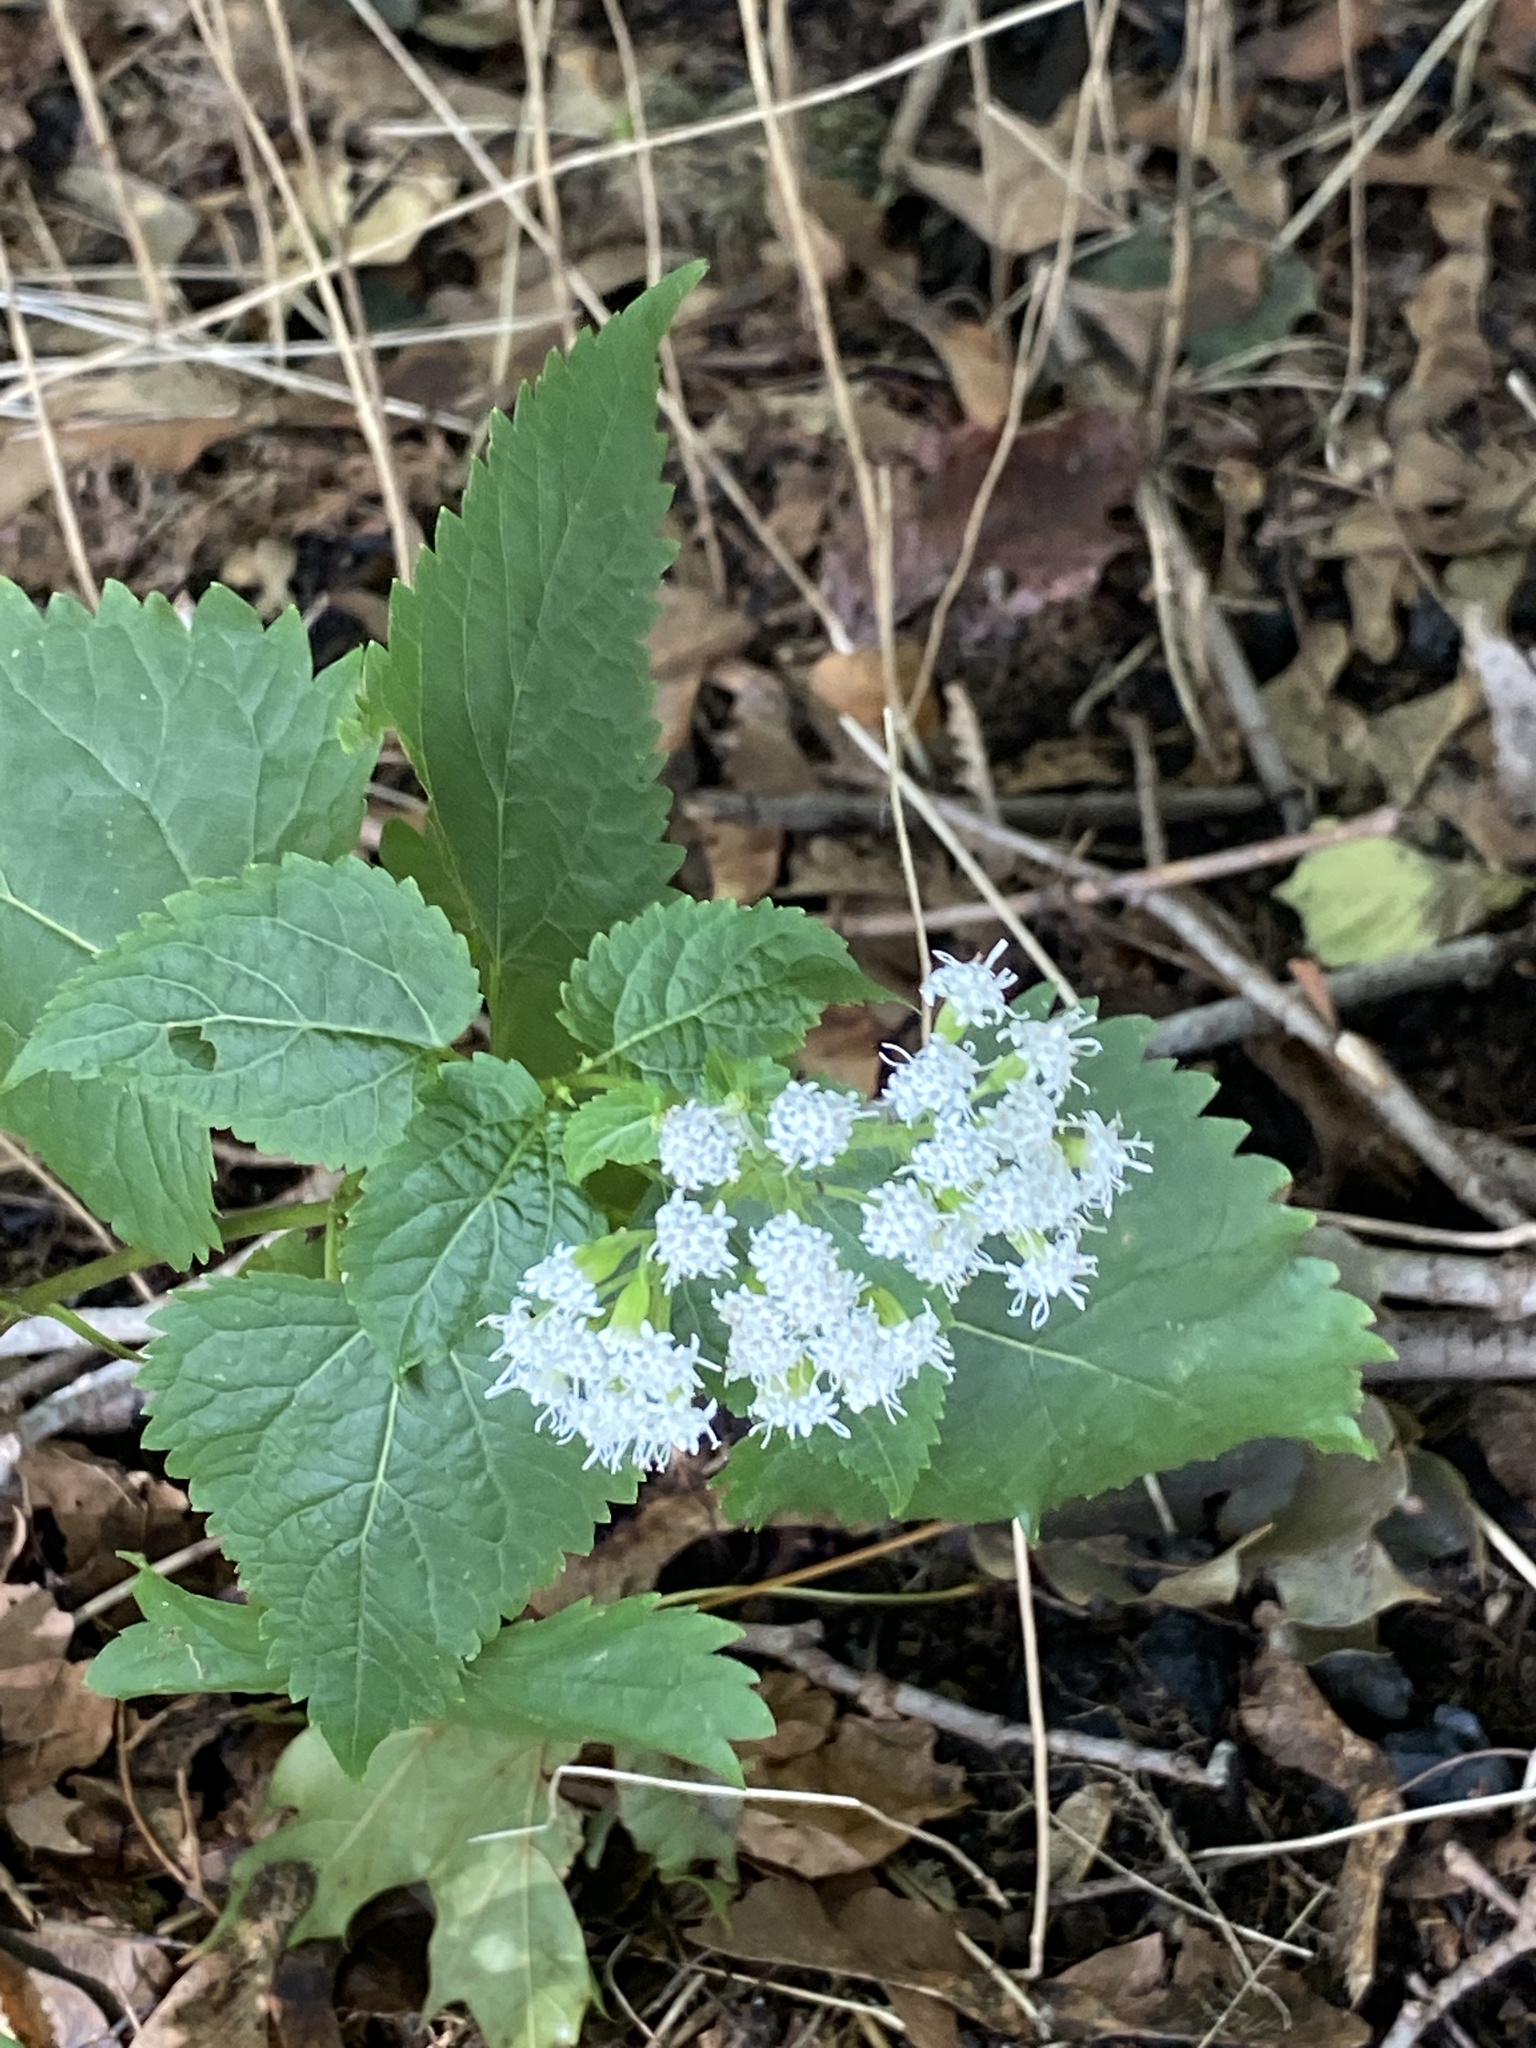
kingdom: Plantae
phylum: Tracheophyta
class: Magnoliopsida
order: Asterales
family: Asteraceae
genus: Ageratina
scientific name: Ageratina altissima
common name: White snakeroot
